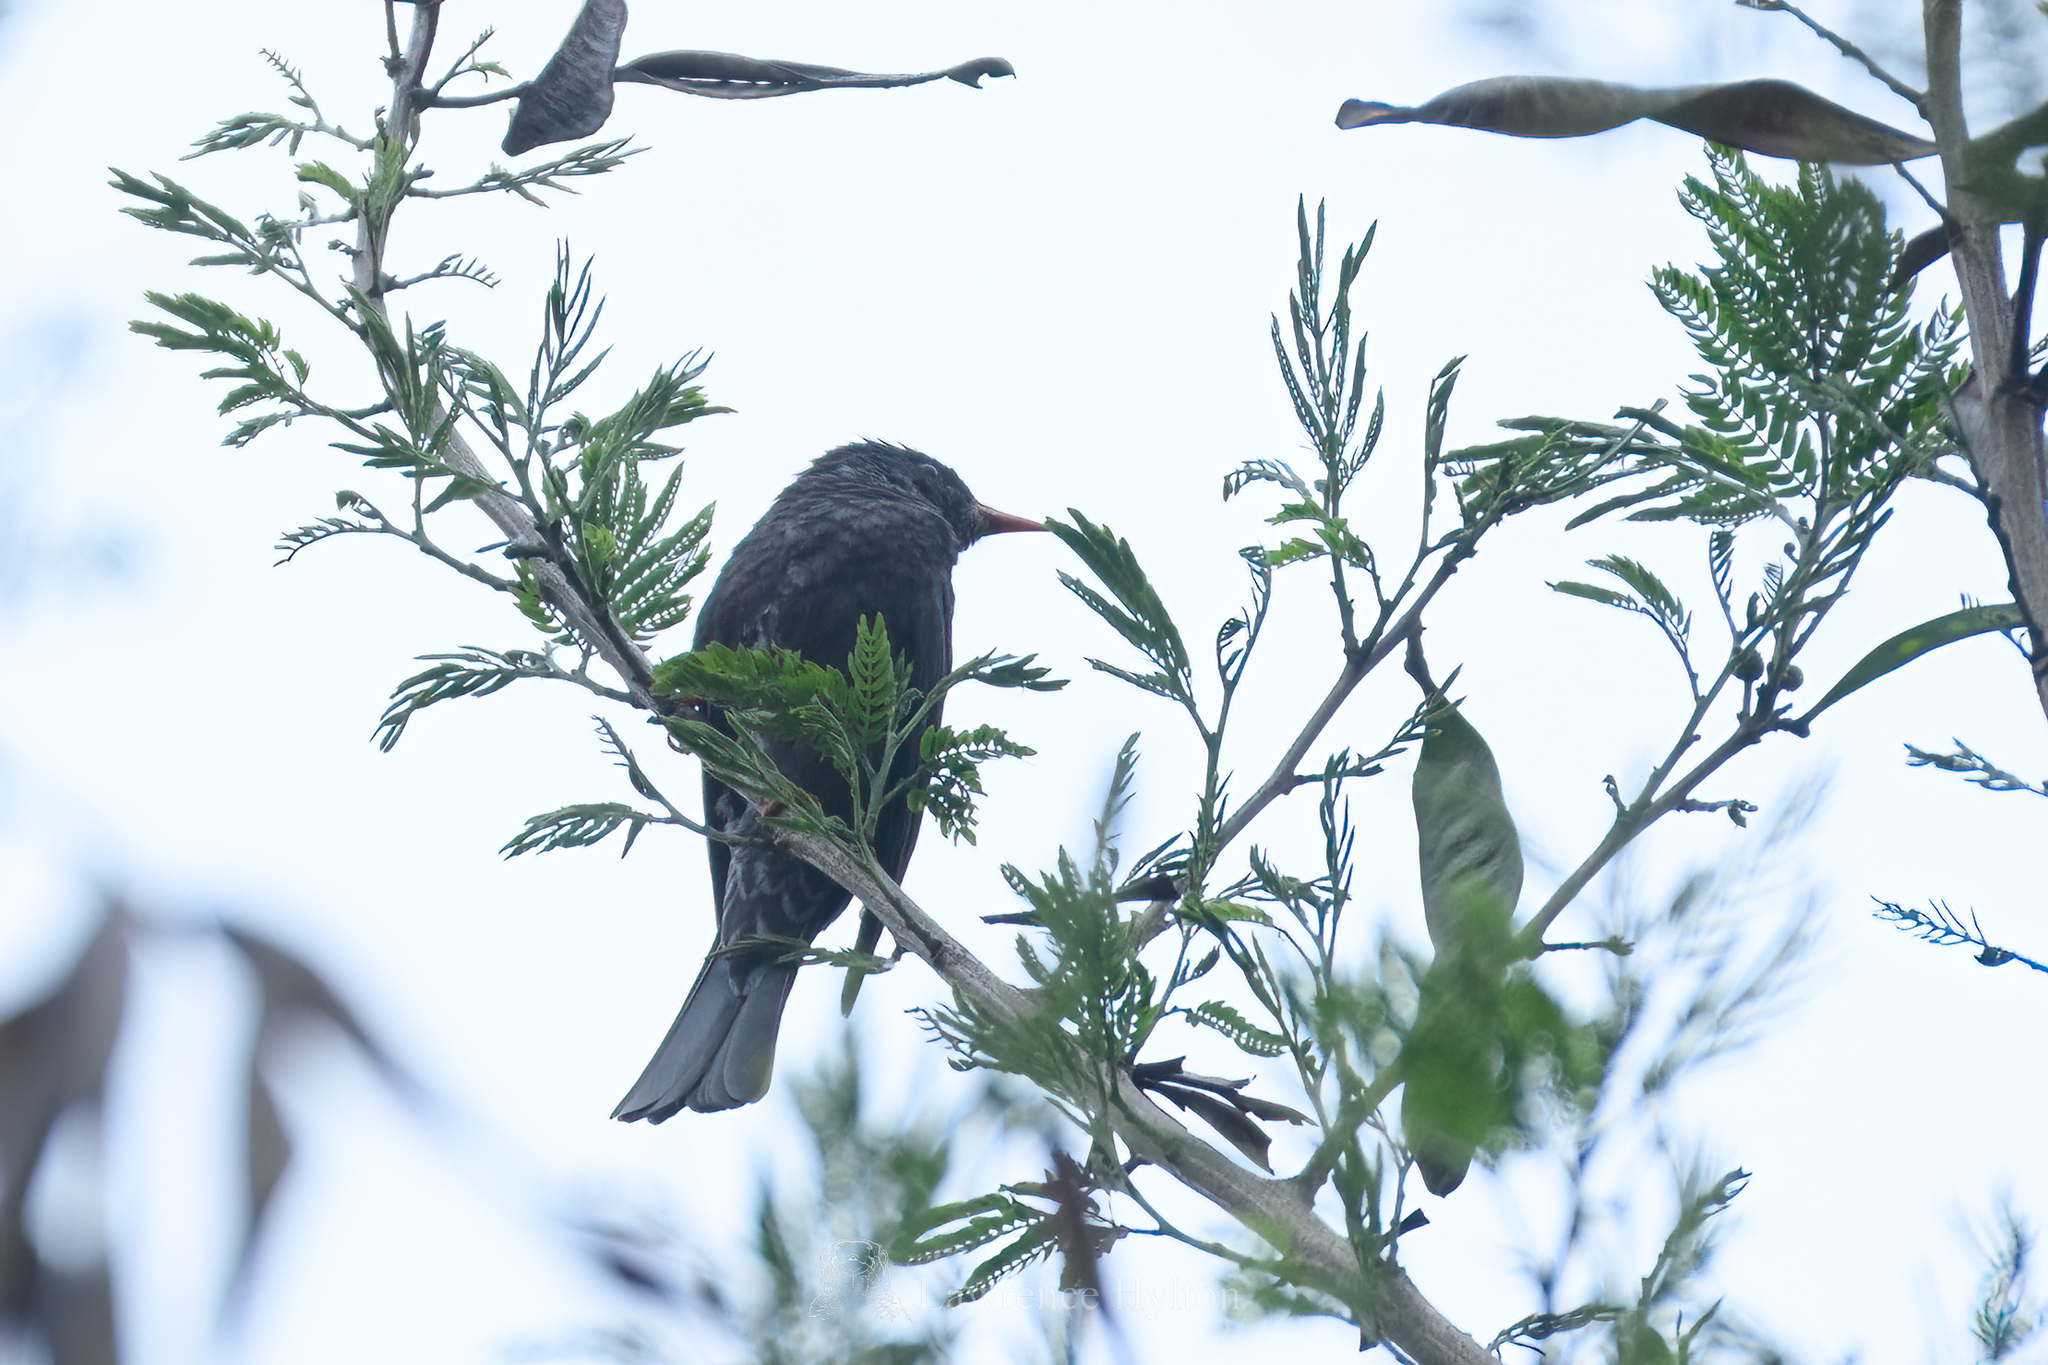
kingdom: Animalia
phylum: Chordata
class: Aves
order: Passeriformes
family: Pycnonotidae
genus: Hypsipetes
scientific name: Hypsipetes leucocephalus
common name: Black bulbul
